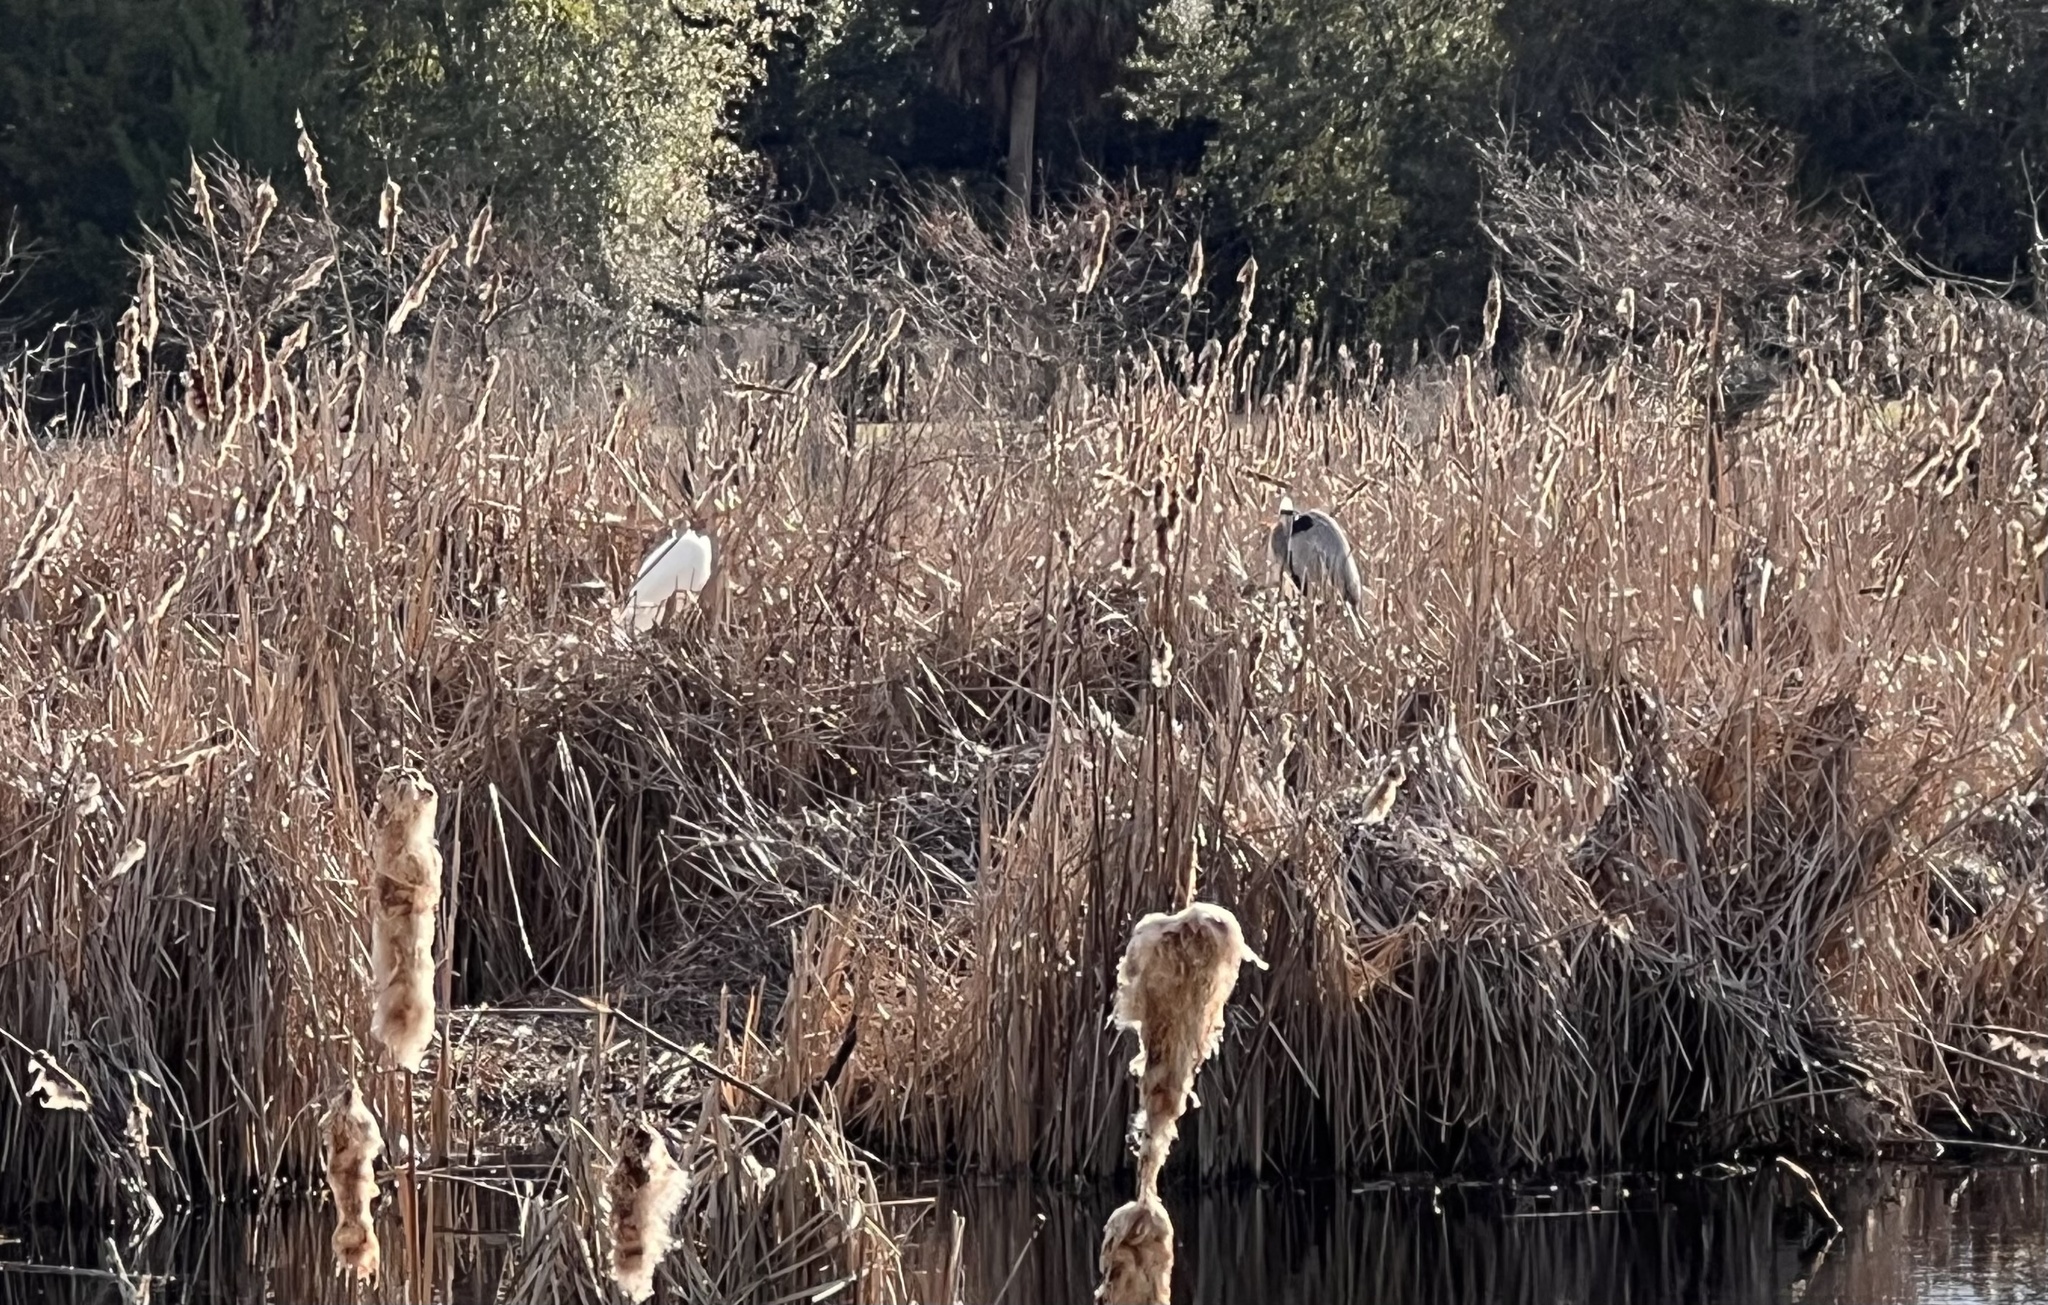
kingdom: Animalia
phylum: Chordata
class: Aves
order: Pelecaniformes
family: Ardeidae
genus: Ardea
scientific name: Ardea herodias
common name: Great blue heron
